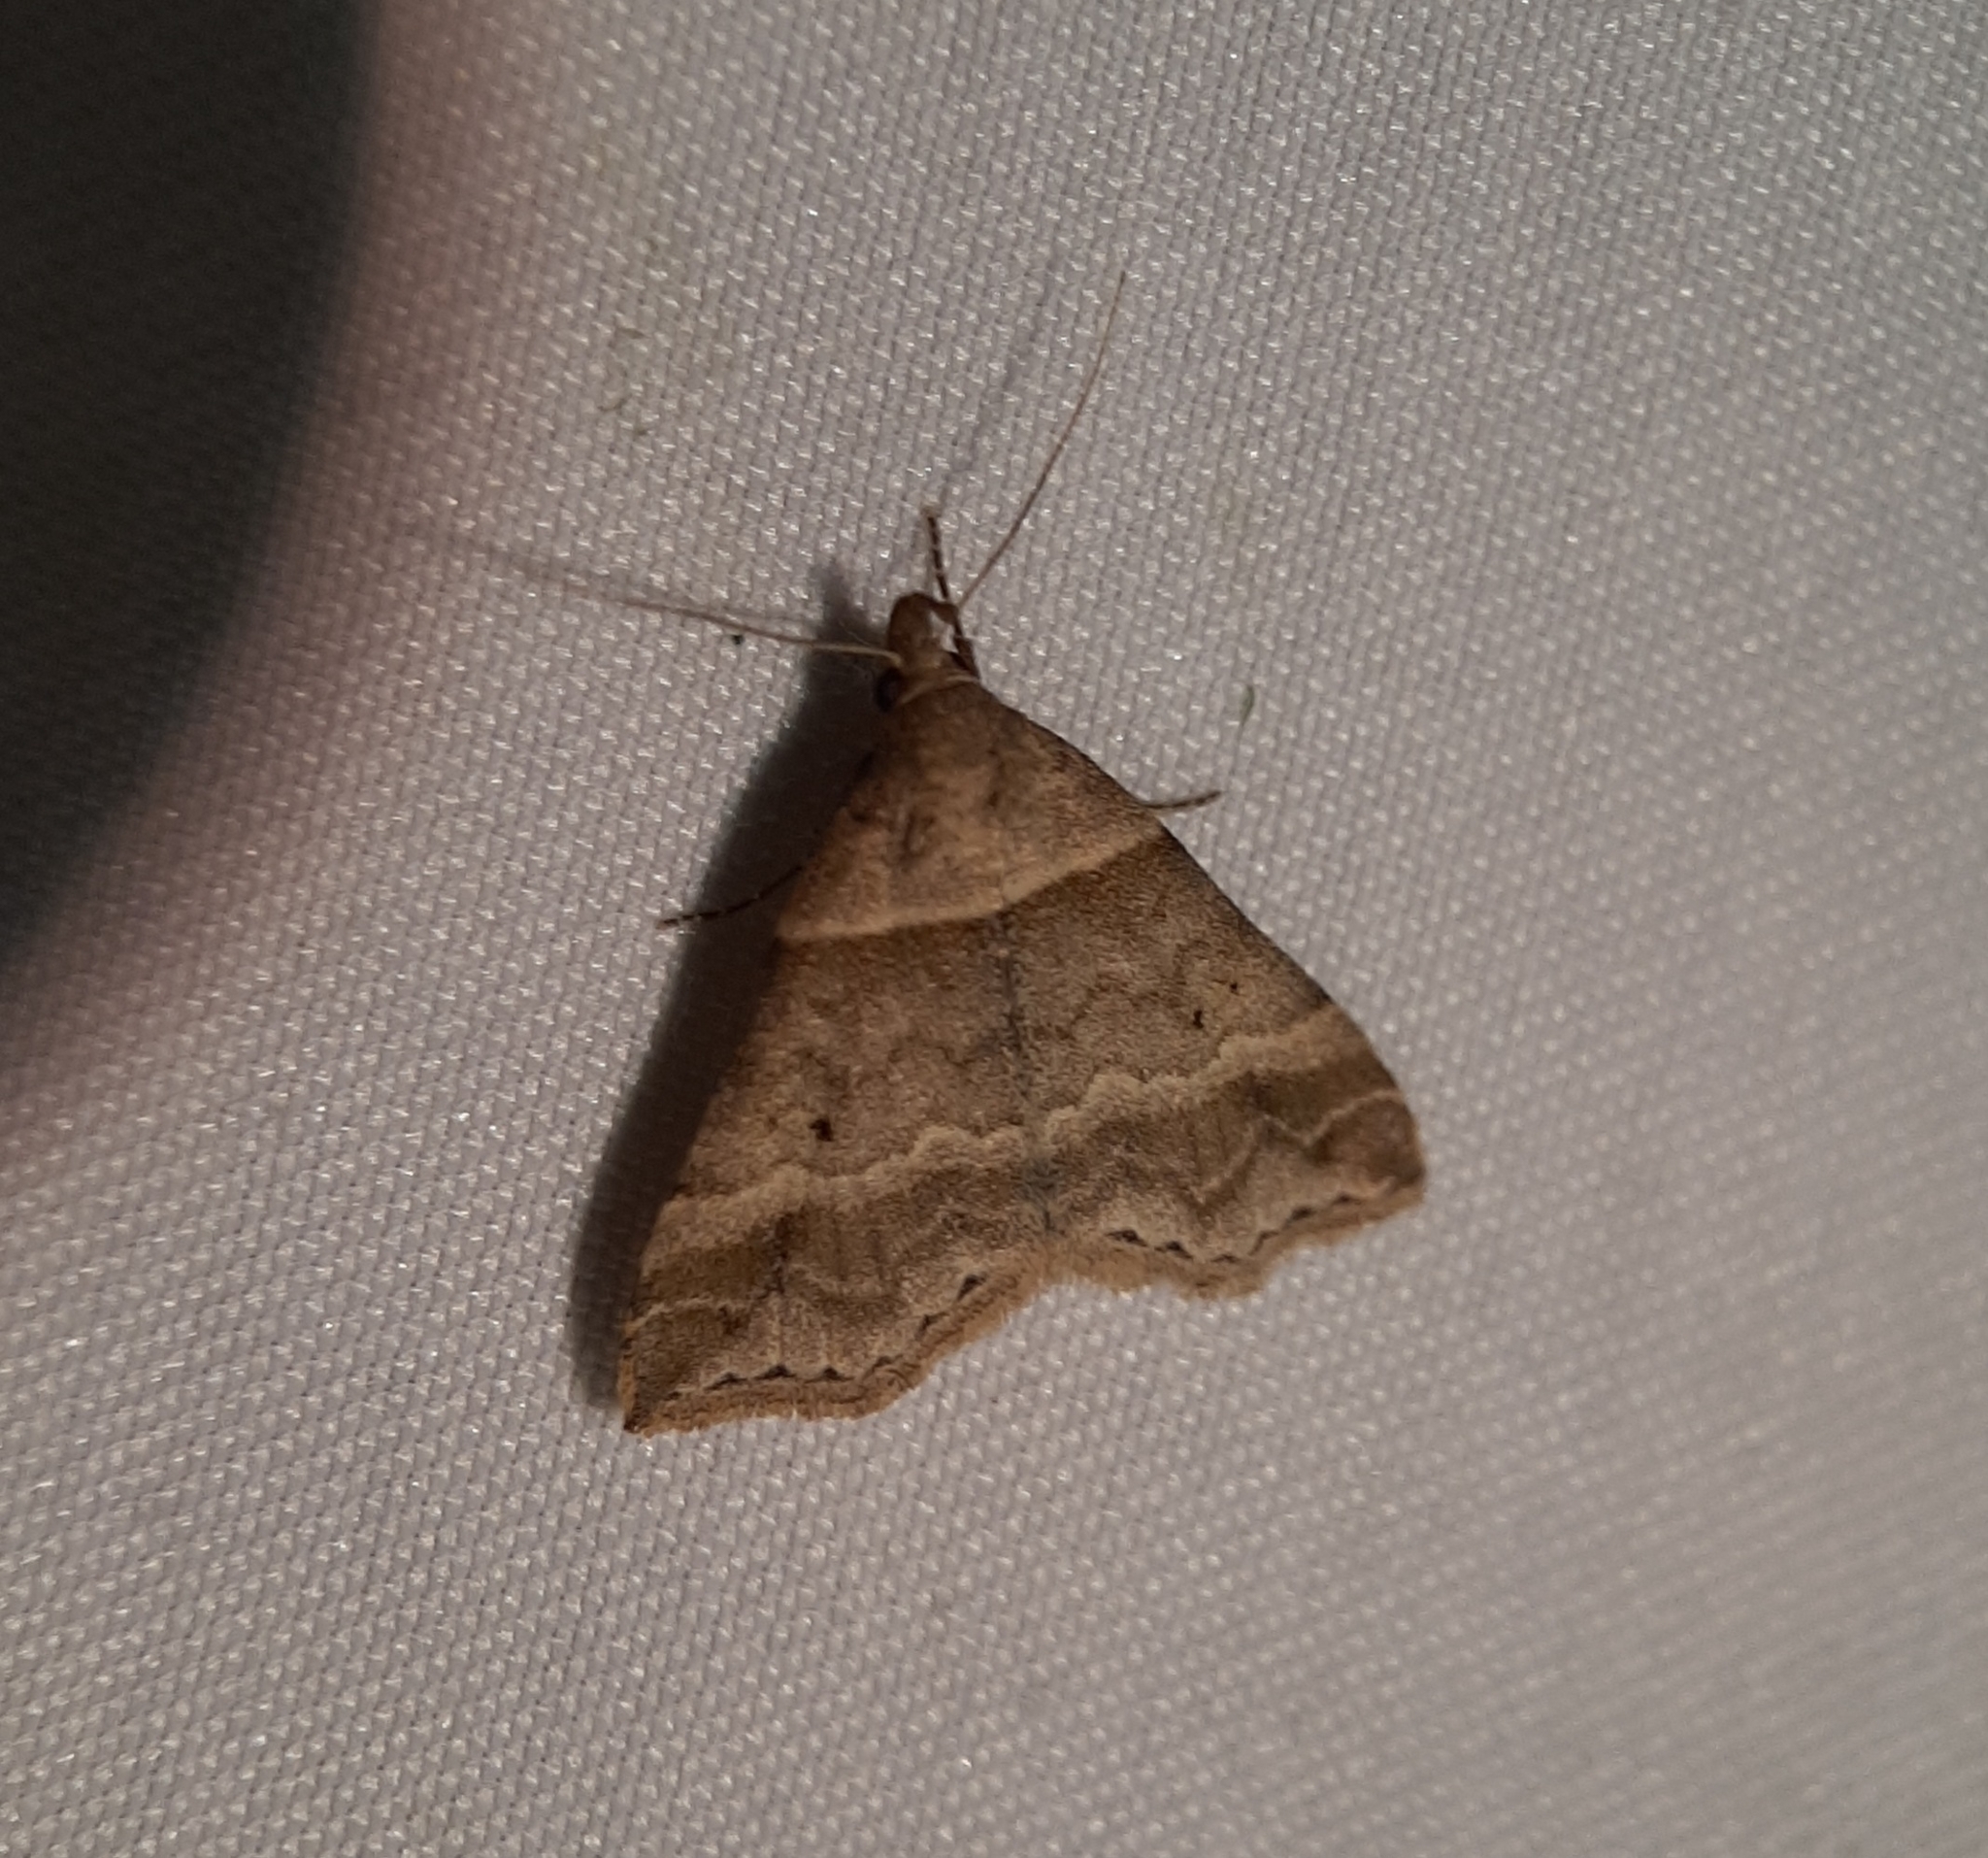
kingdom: Animalia
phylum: Arthropoda
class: Insecta
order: Lepidoptera
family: Erebidae
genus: Phaeolita
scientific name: Phaeolita pyramusalis
